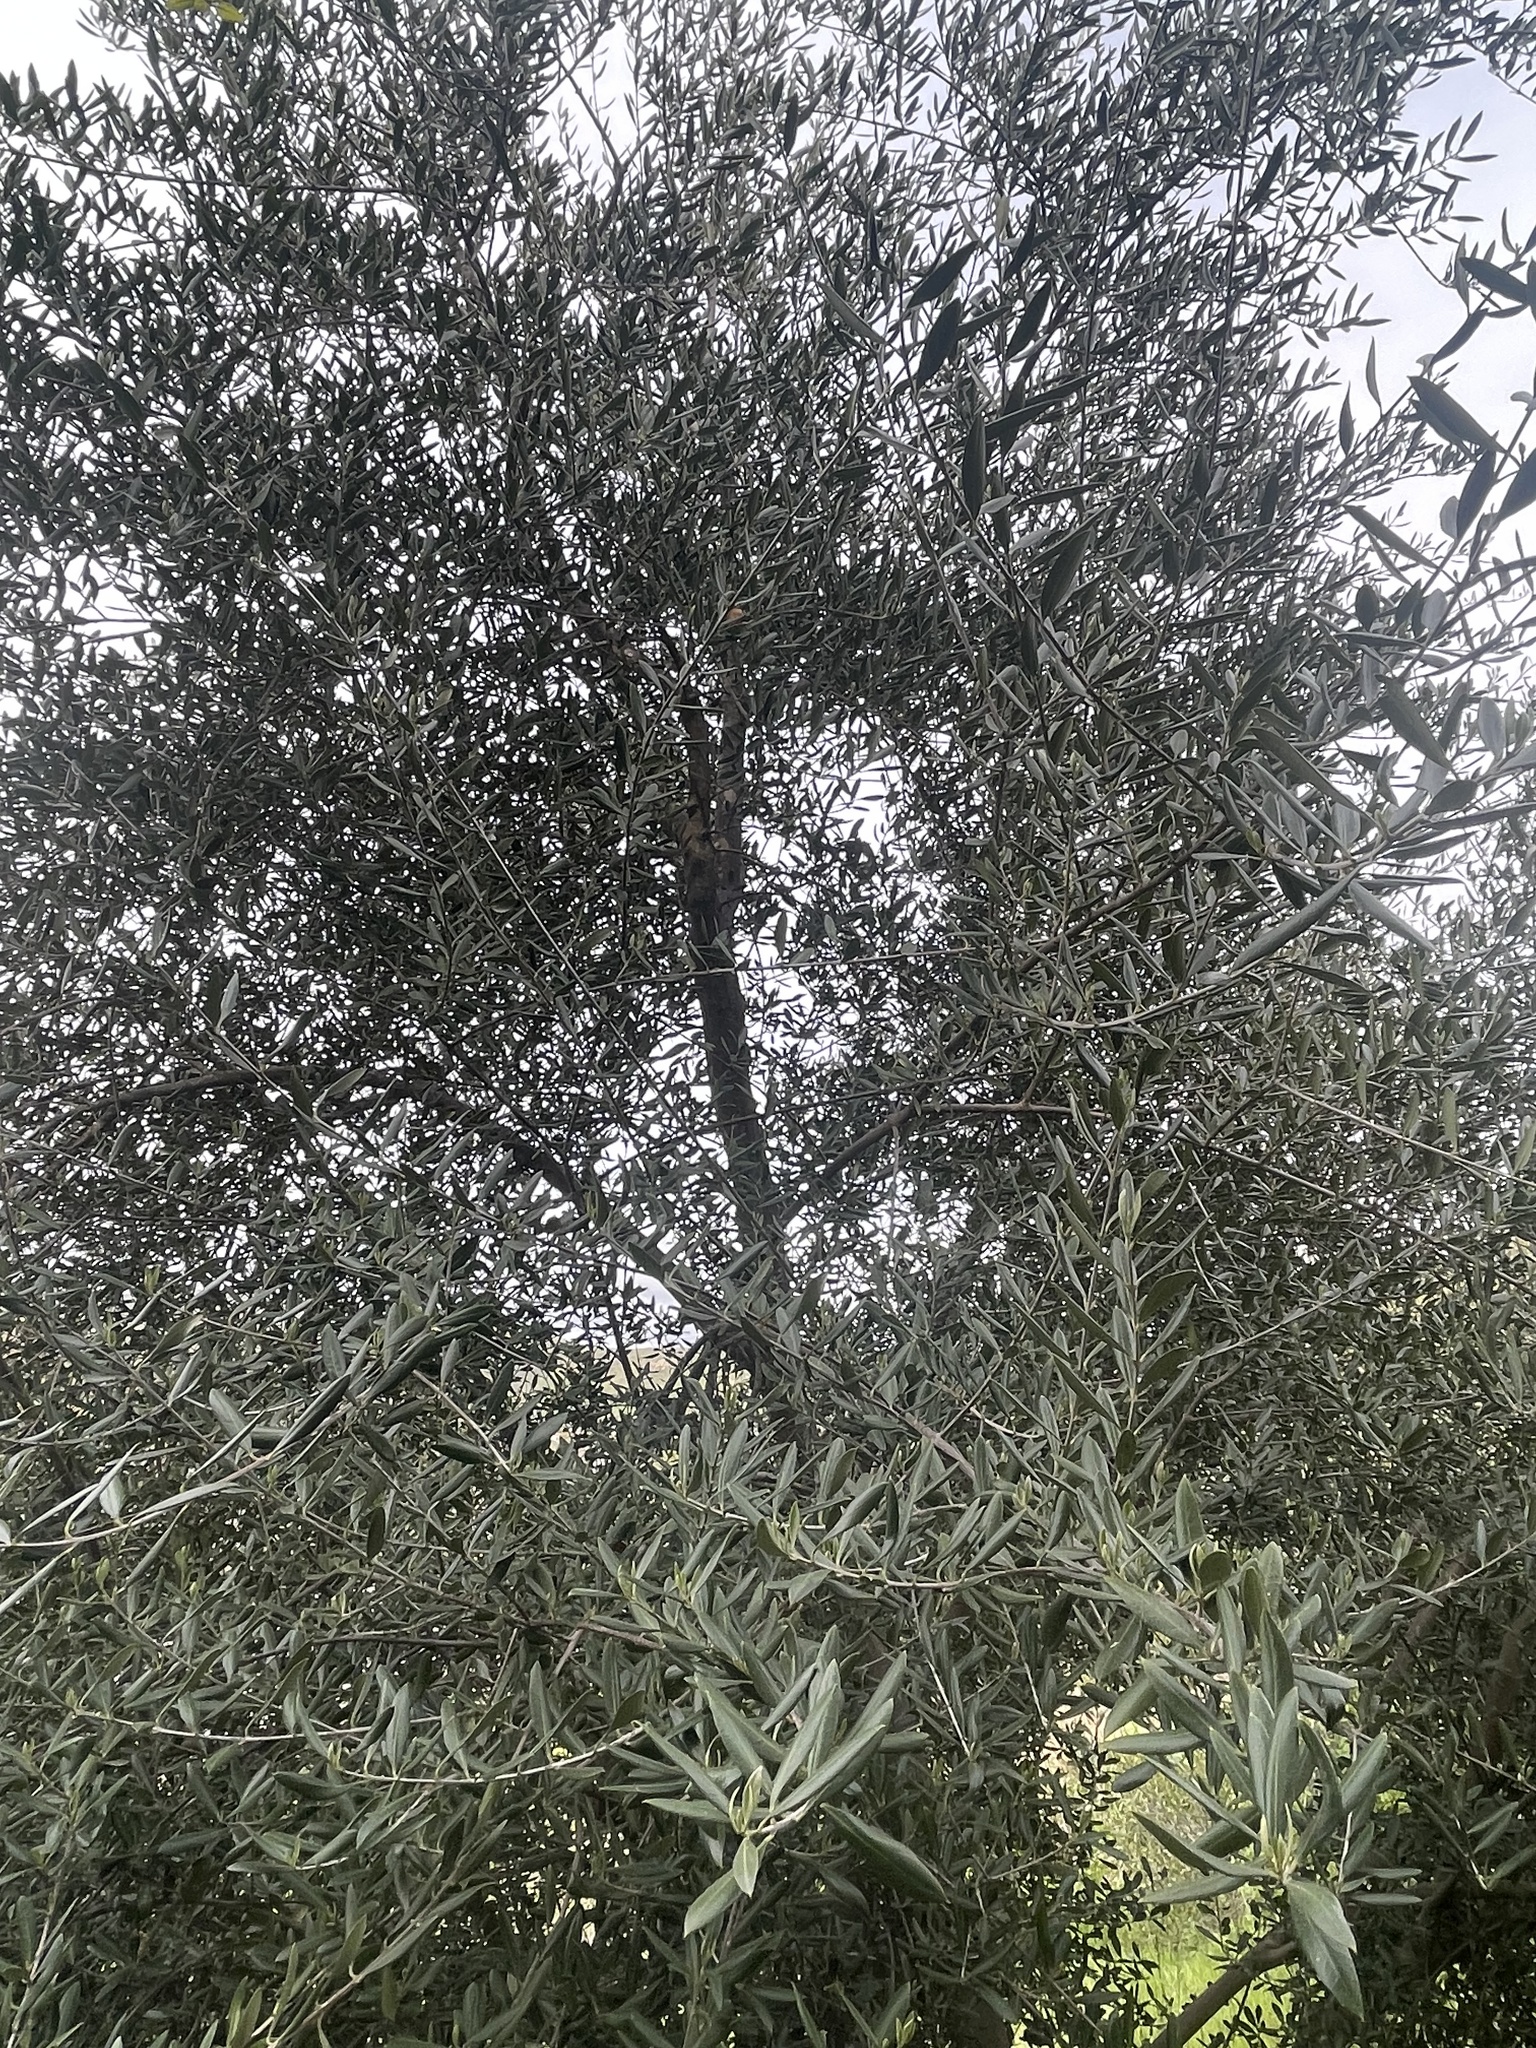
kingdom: Plantae
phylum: Tracheophyta
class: Magnoliopsida
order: Lamiales
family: Oleaceae
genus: Olea
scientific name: Olea europaea
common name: Olive
